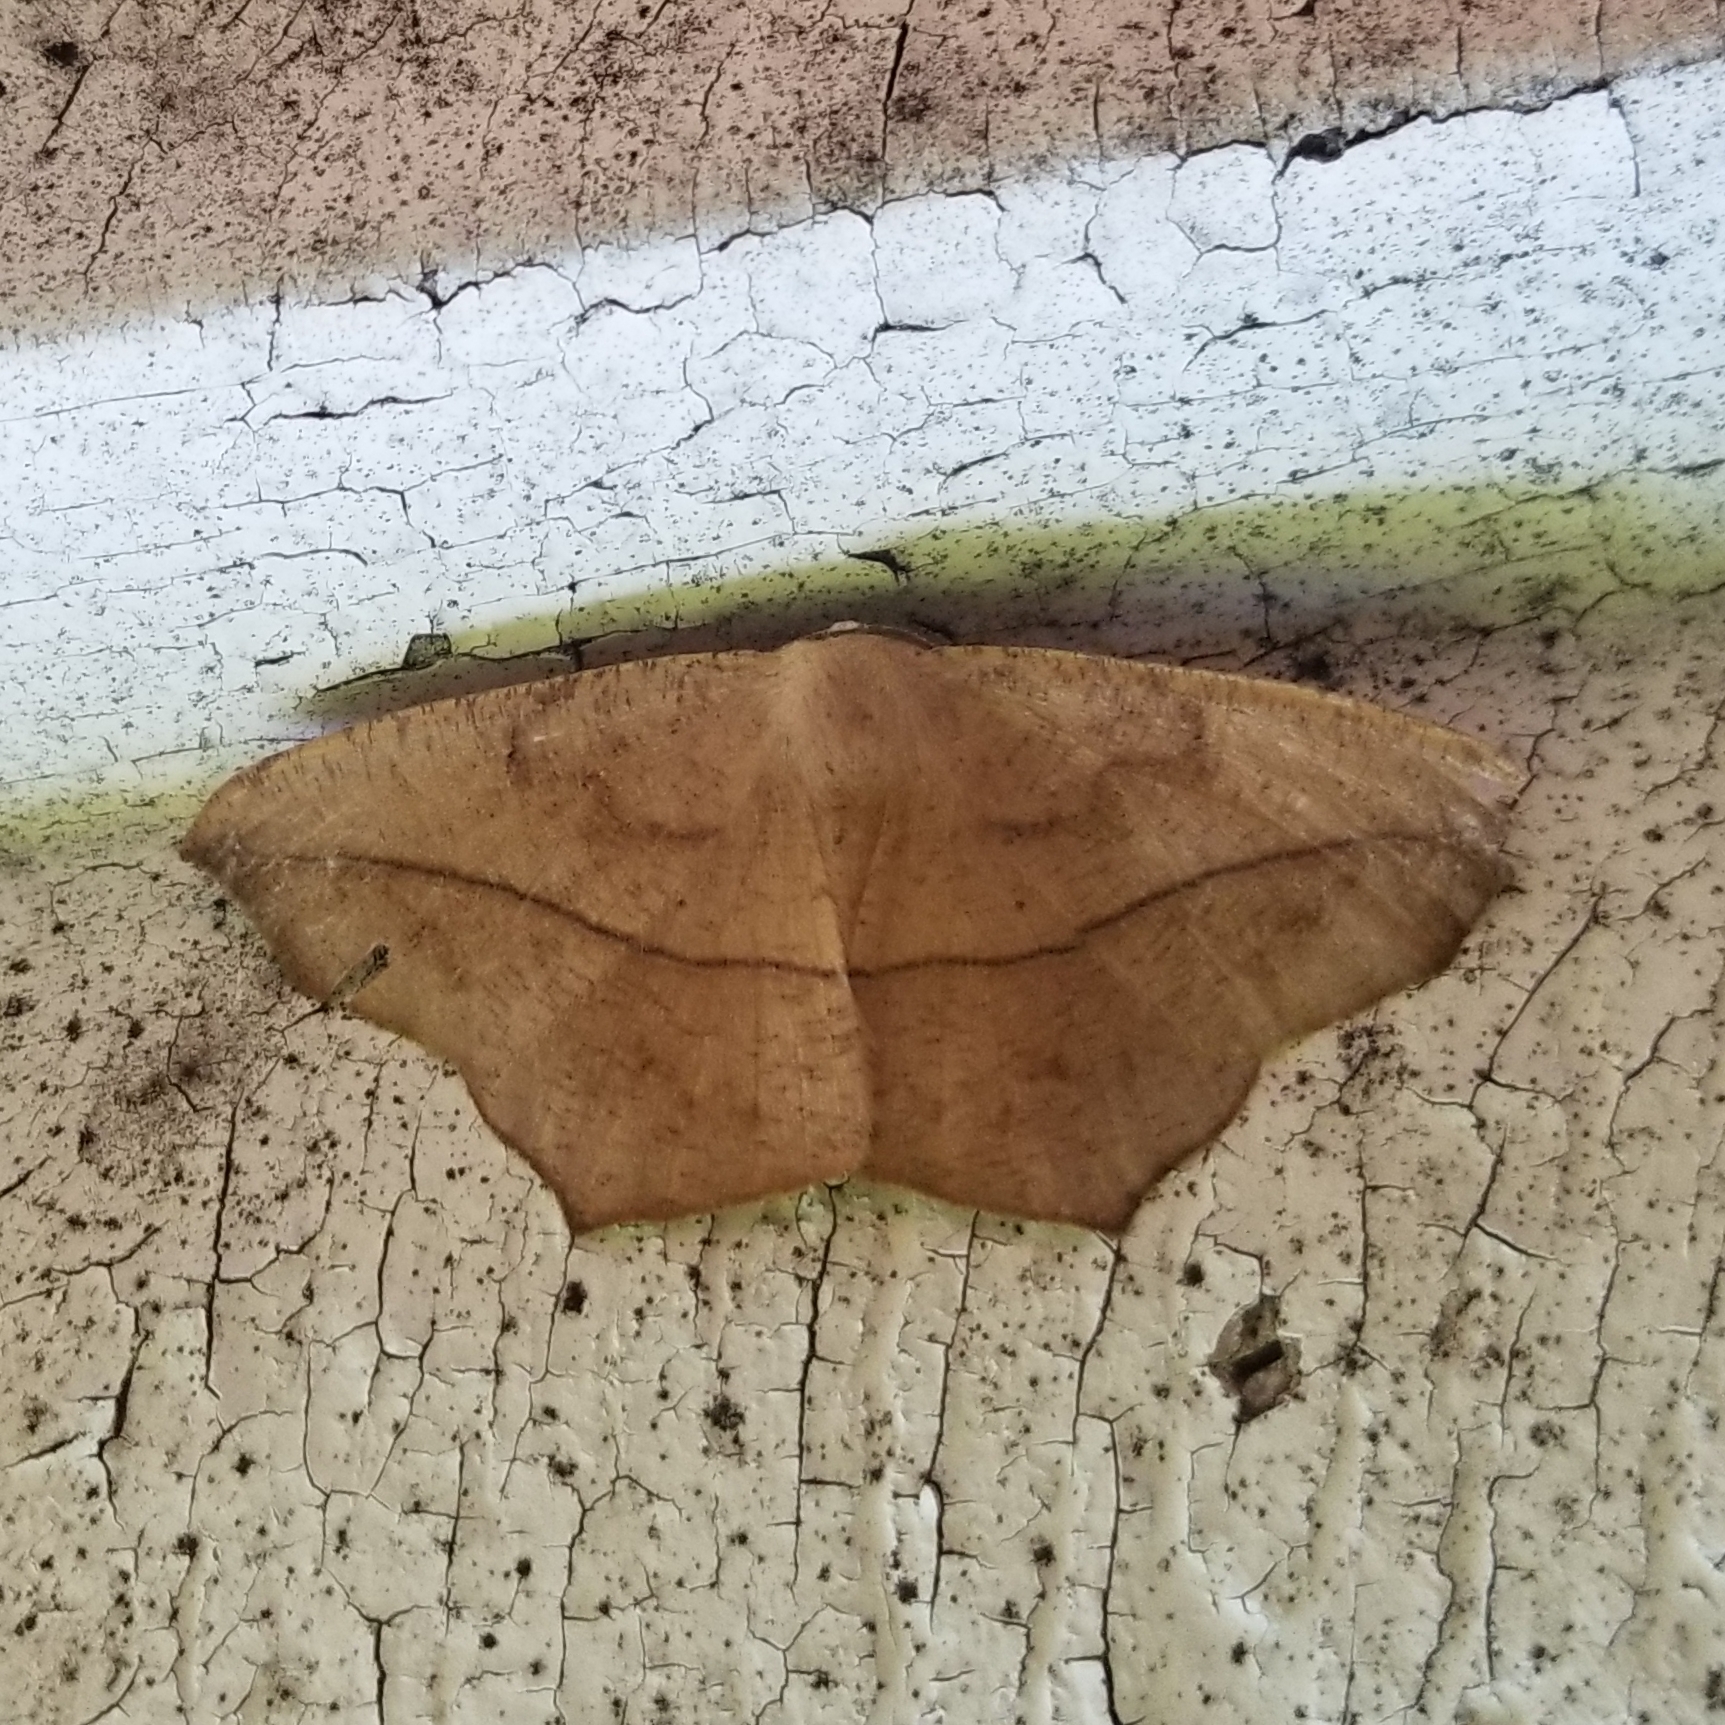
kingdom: Animalia
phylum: Arthropoda
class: Insecta
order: Lepidoptera
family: Geometridae
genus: Prochoerodes
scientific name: Prochoerodes lineola
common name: Large maple spanworm
